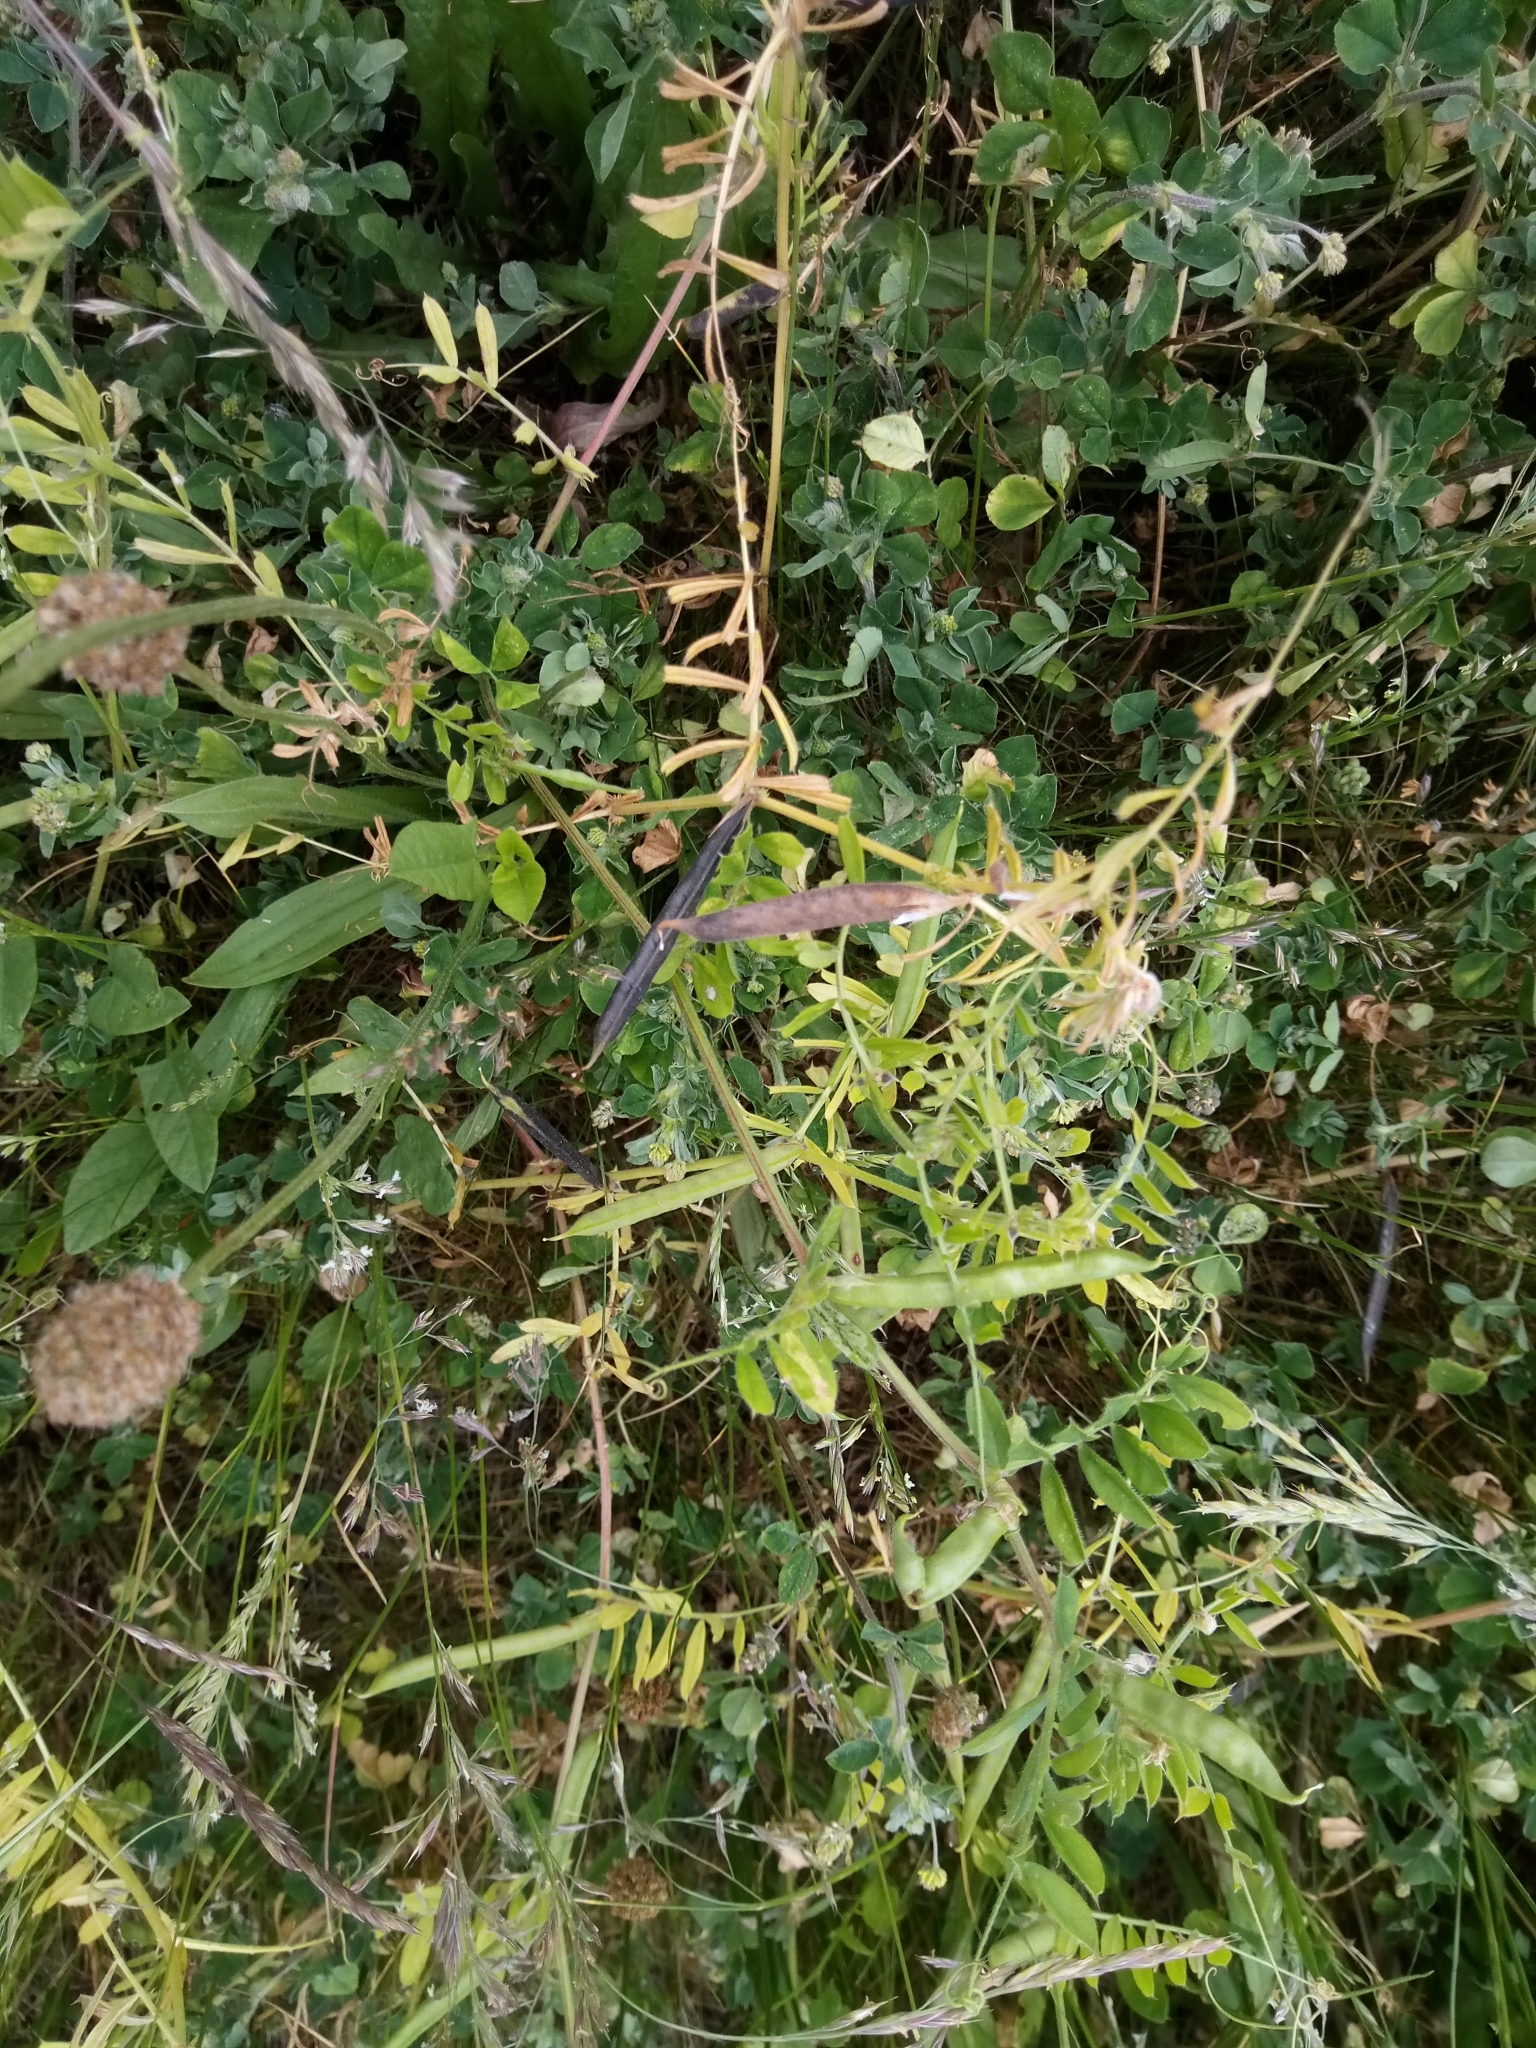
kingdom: Plantae
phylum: Tracheophyta
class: Magnoliopsida
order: Fabales
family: Fabaceae
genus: Vicia
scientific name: Vicia sativa
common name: Garden vetch
